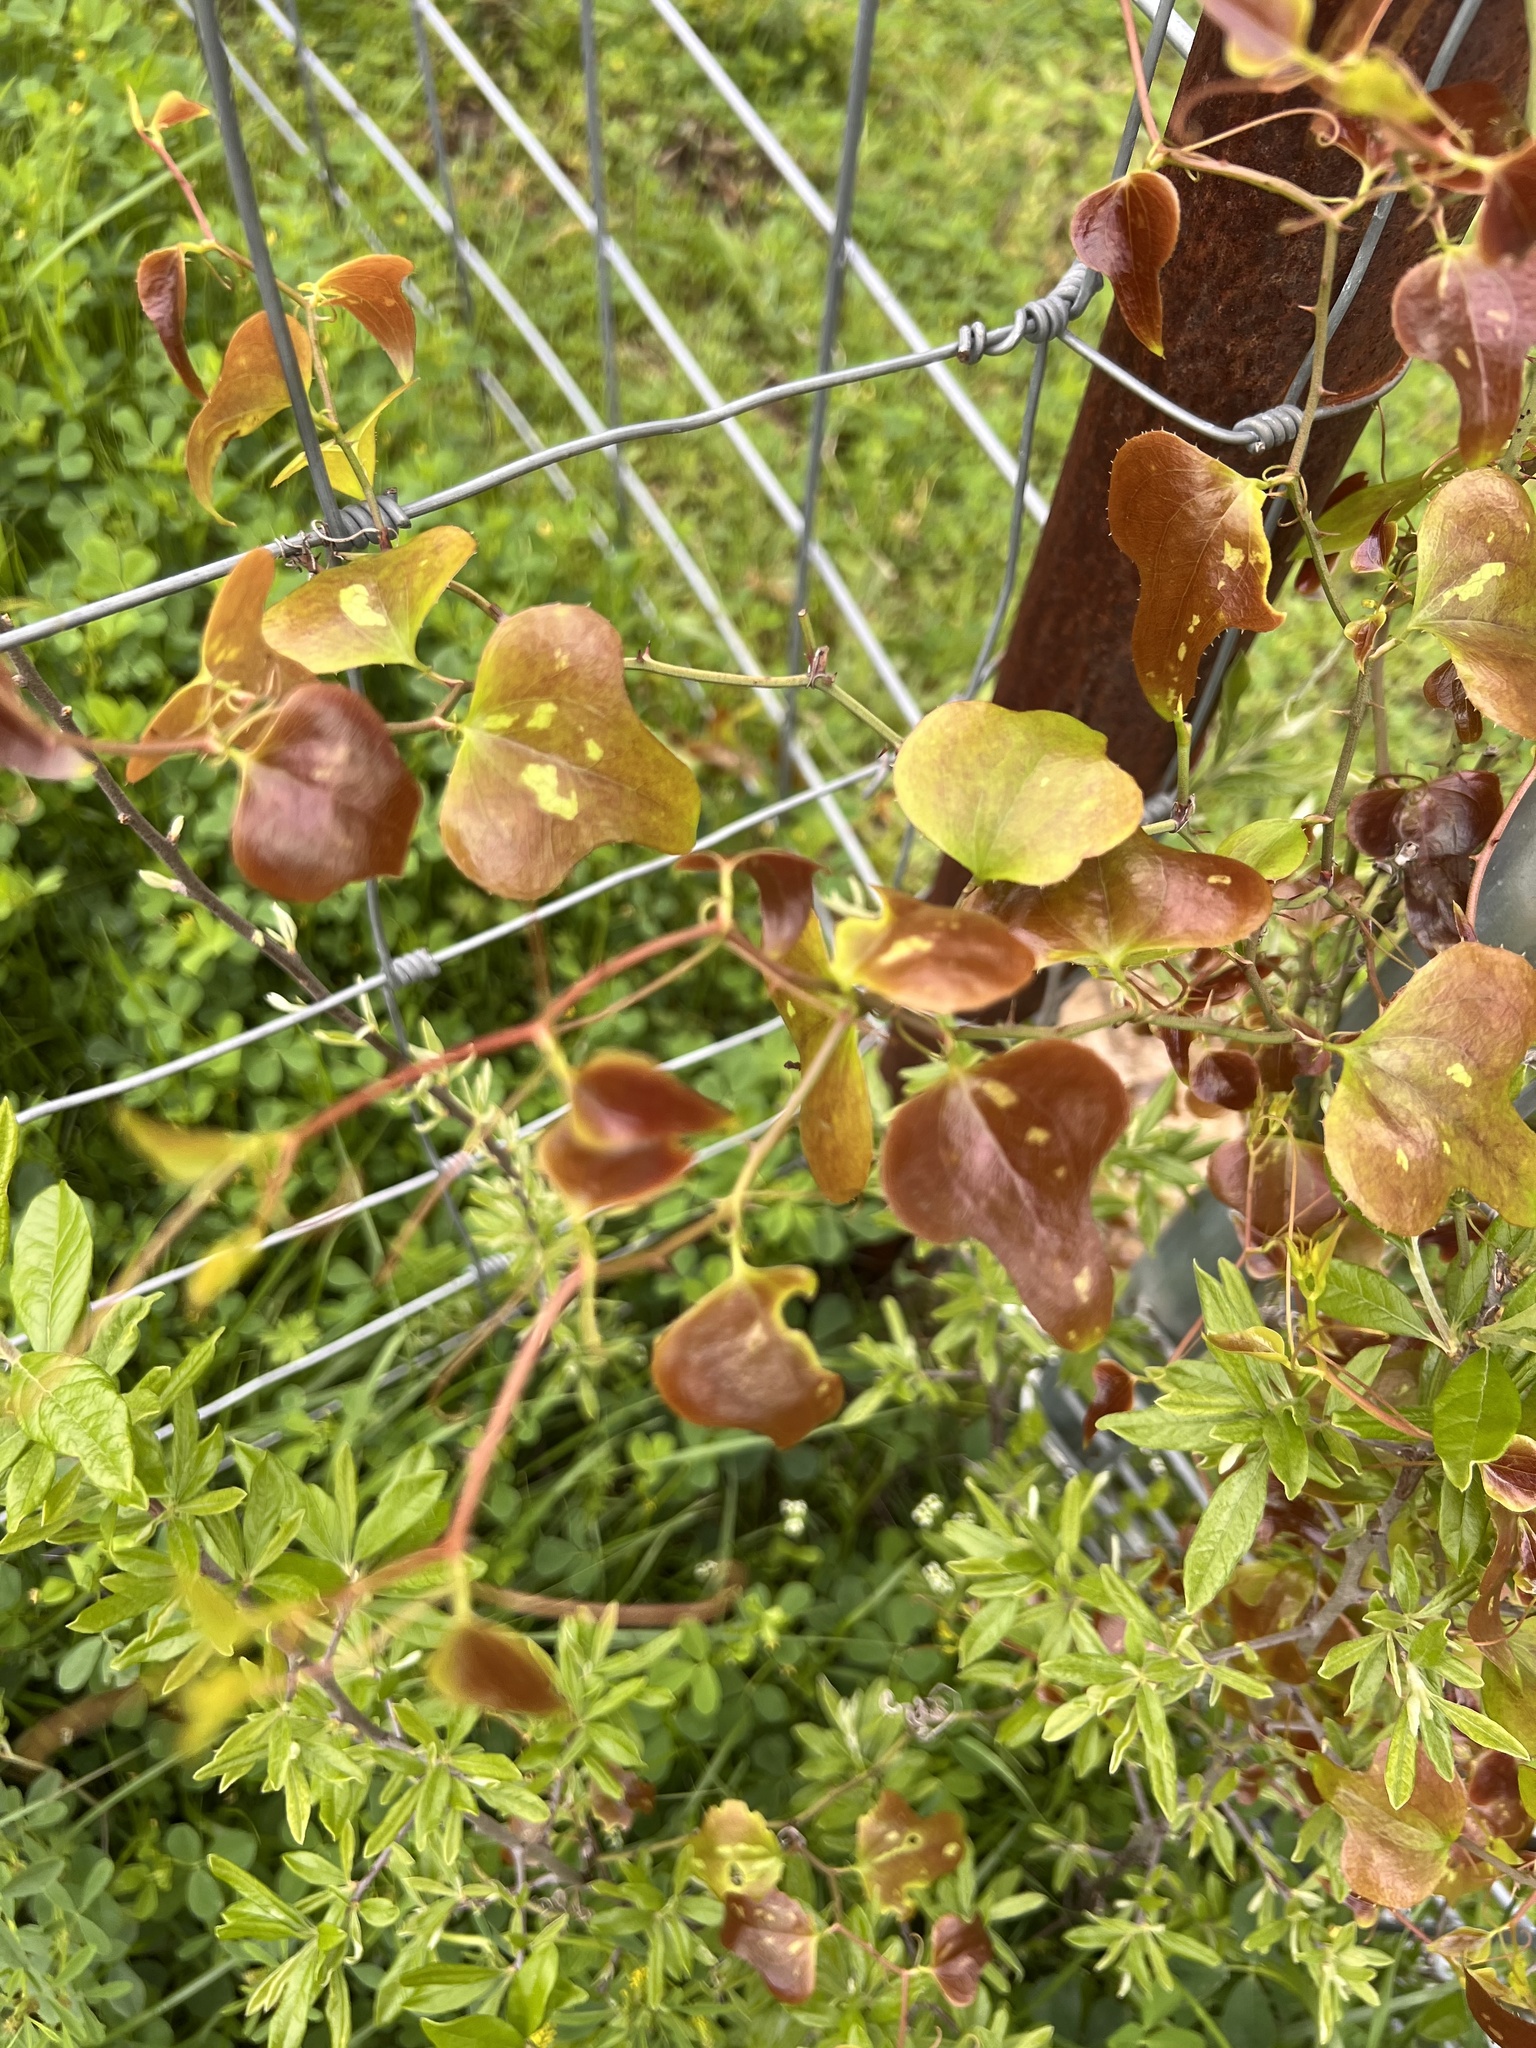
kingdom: Plantae
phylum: Tracheophyta
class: Liliopsida
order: Liliales
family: Smilacaceae
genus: Smilax
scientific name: Smilax bona-nox
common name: Catbrier
